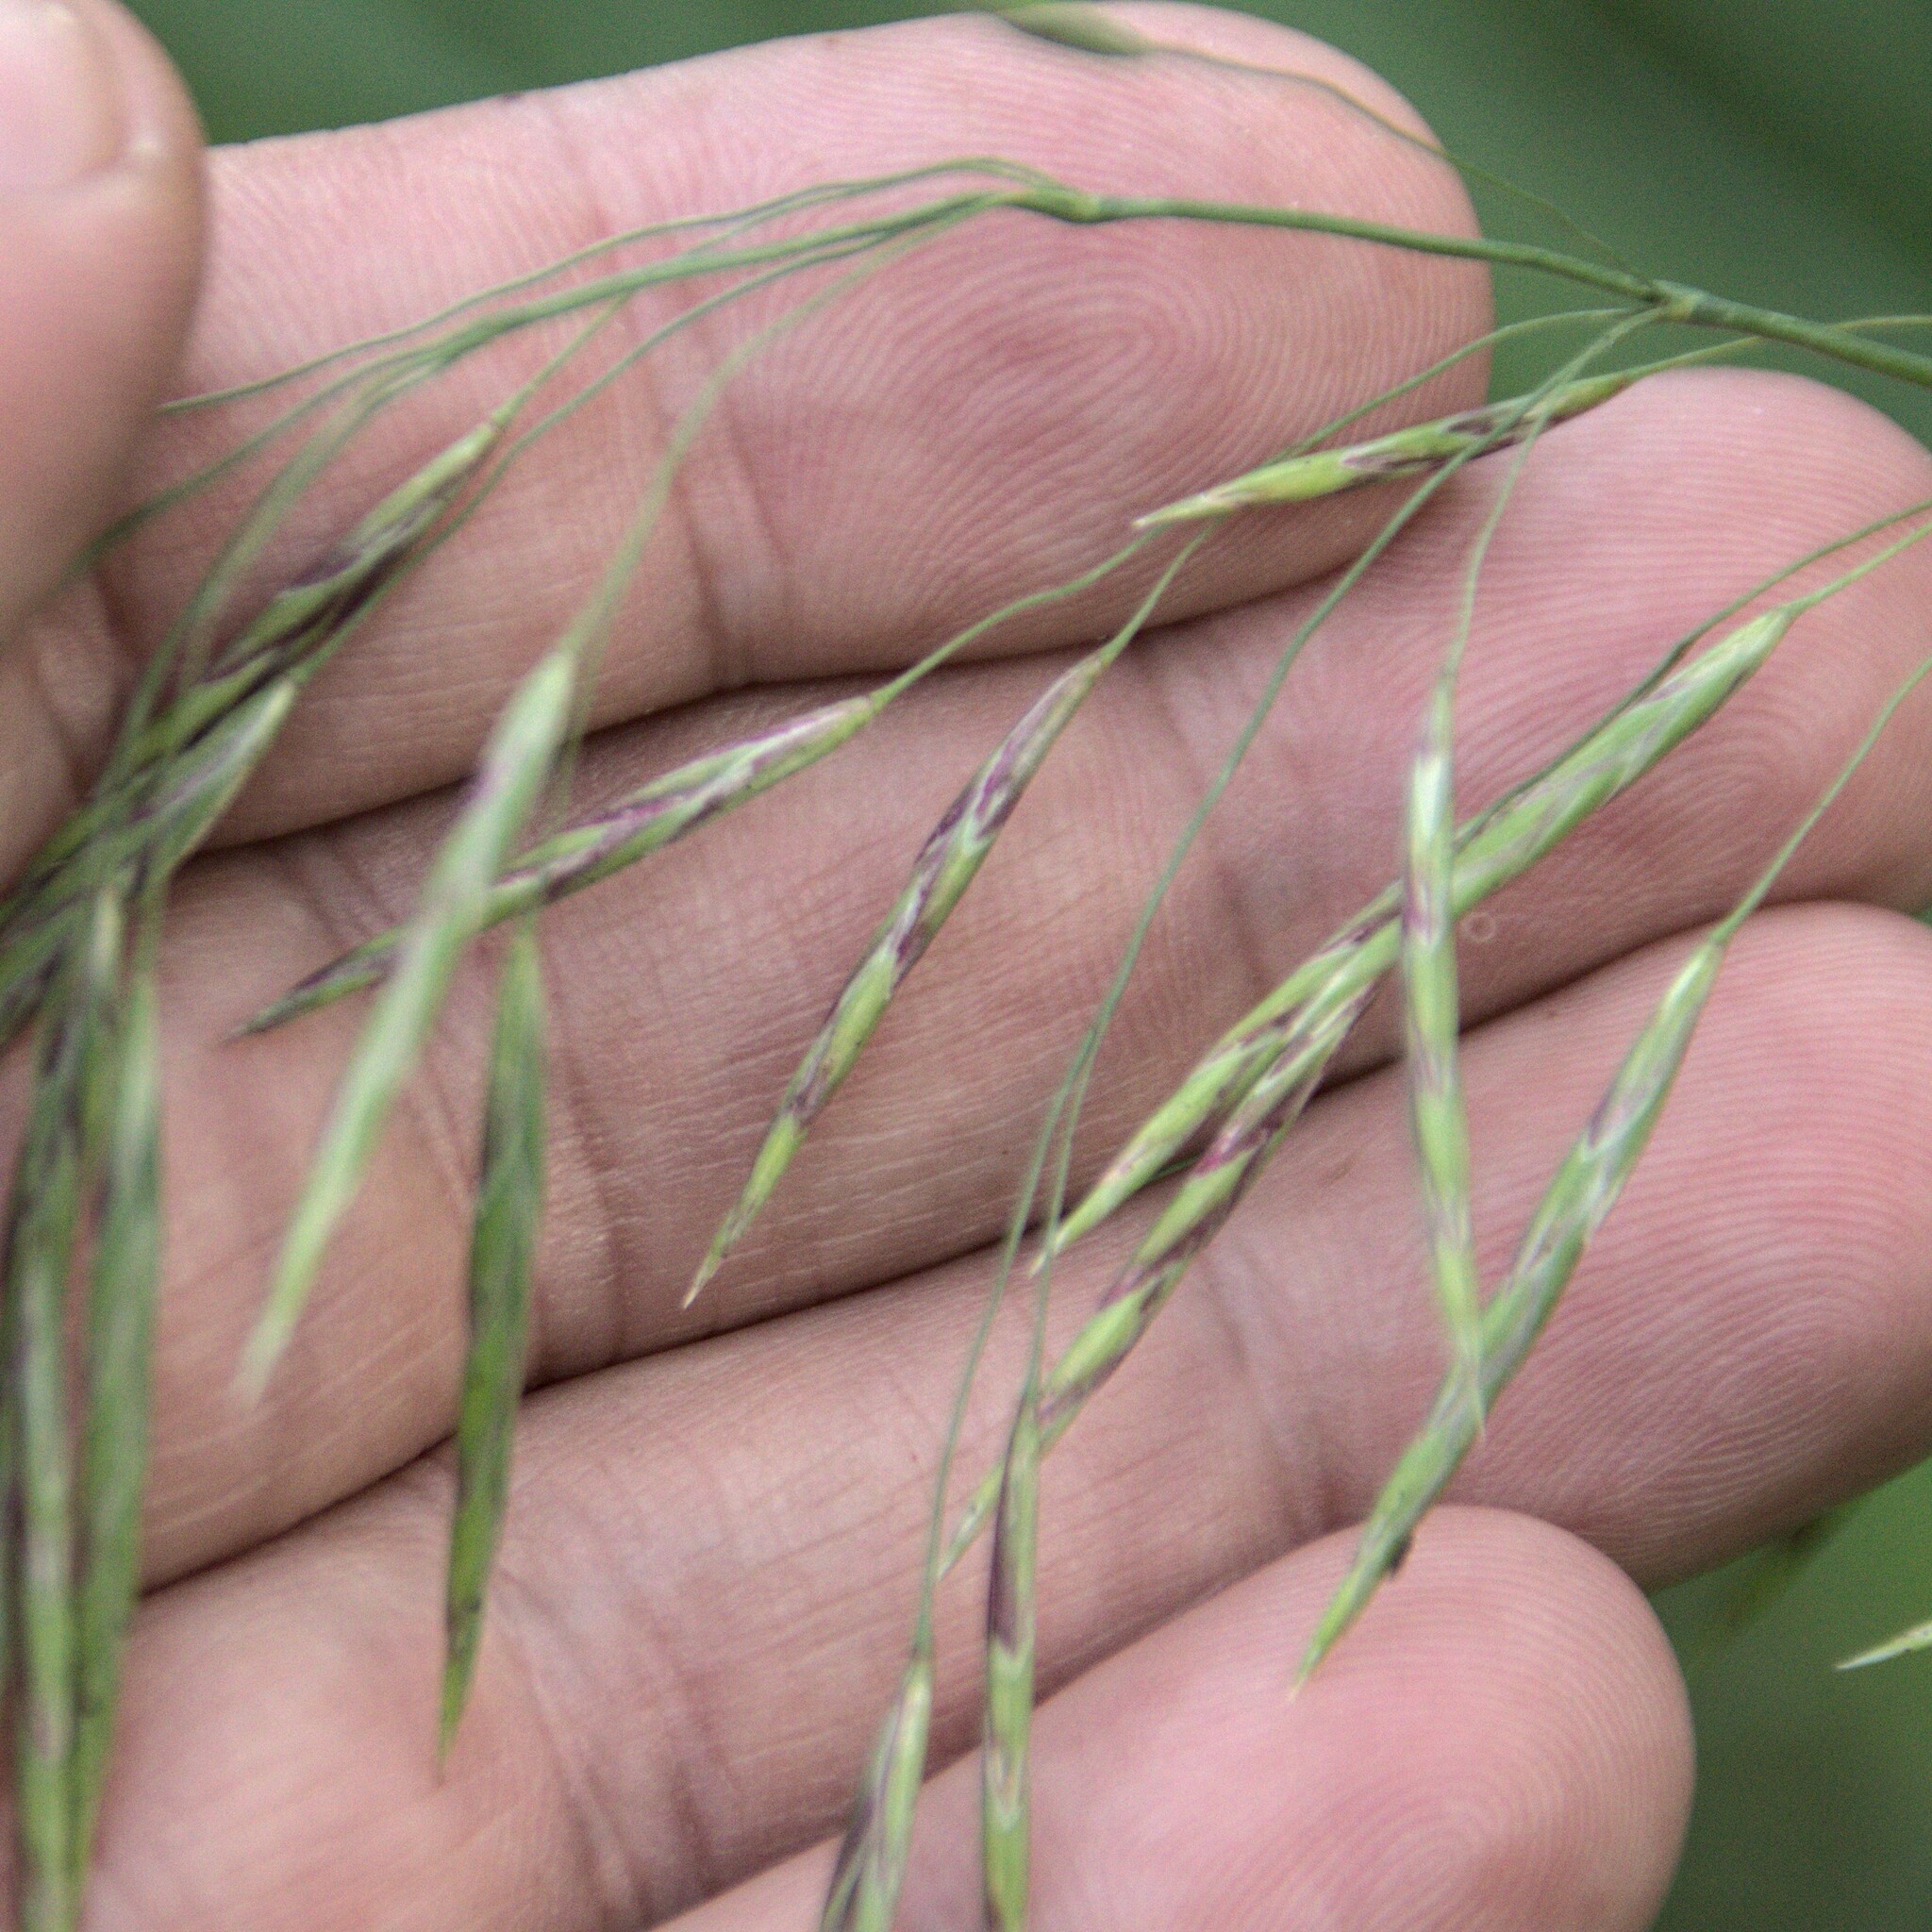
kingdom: Plantae
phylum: Tracheophyta
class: Liliopsida
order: Poales
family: Poaceae
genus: Bromus
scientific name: Bromus inermis
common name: Smooth brome
